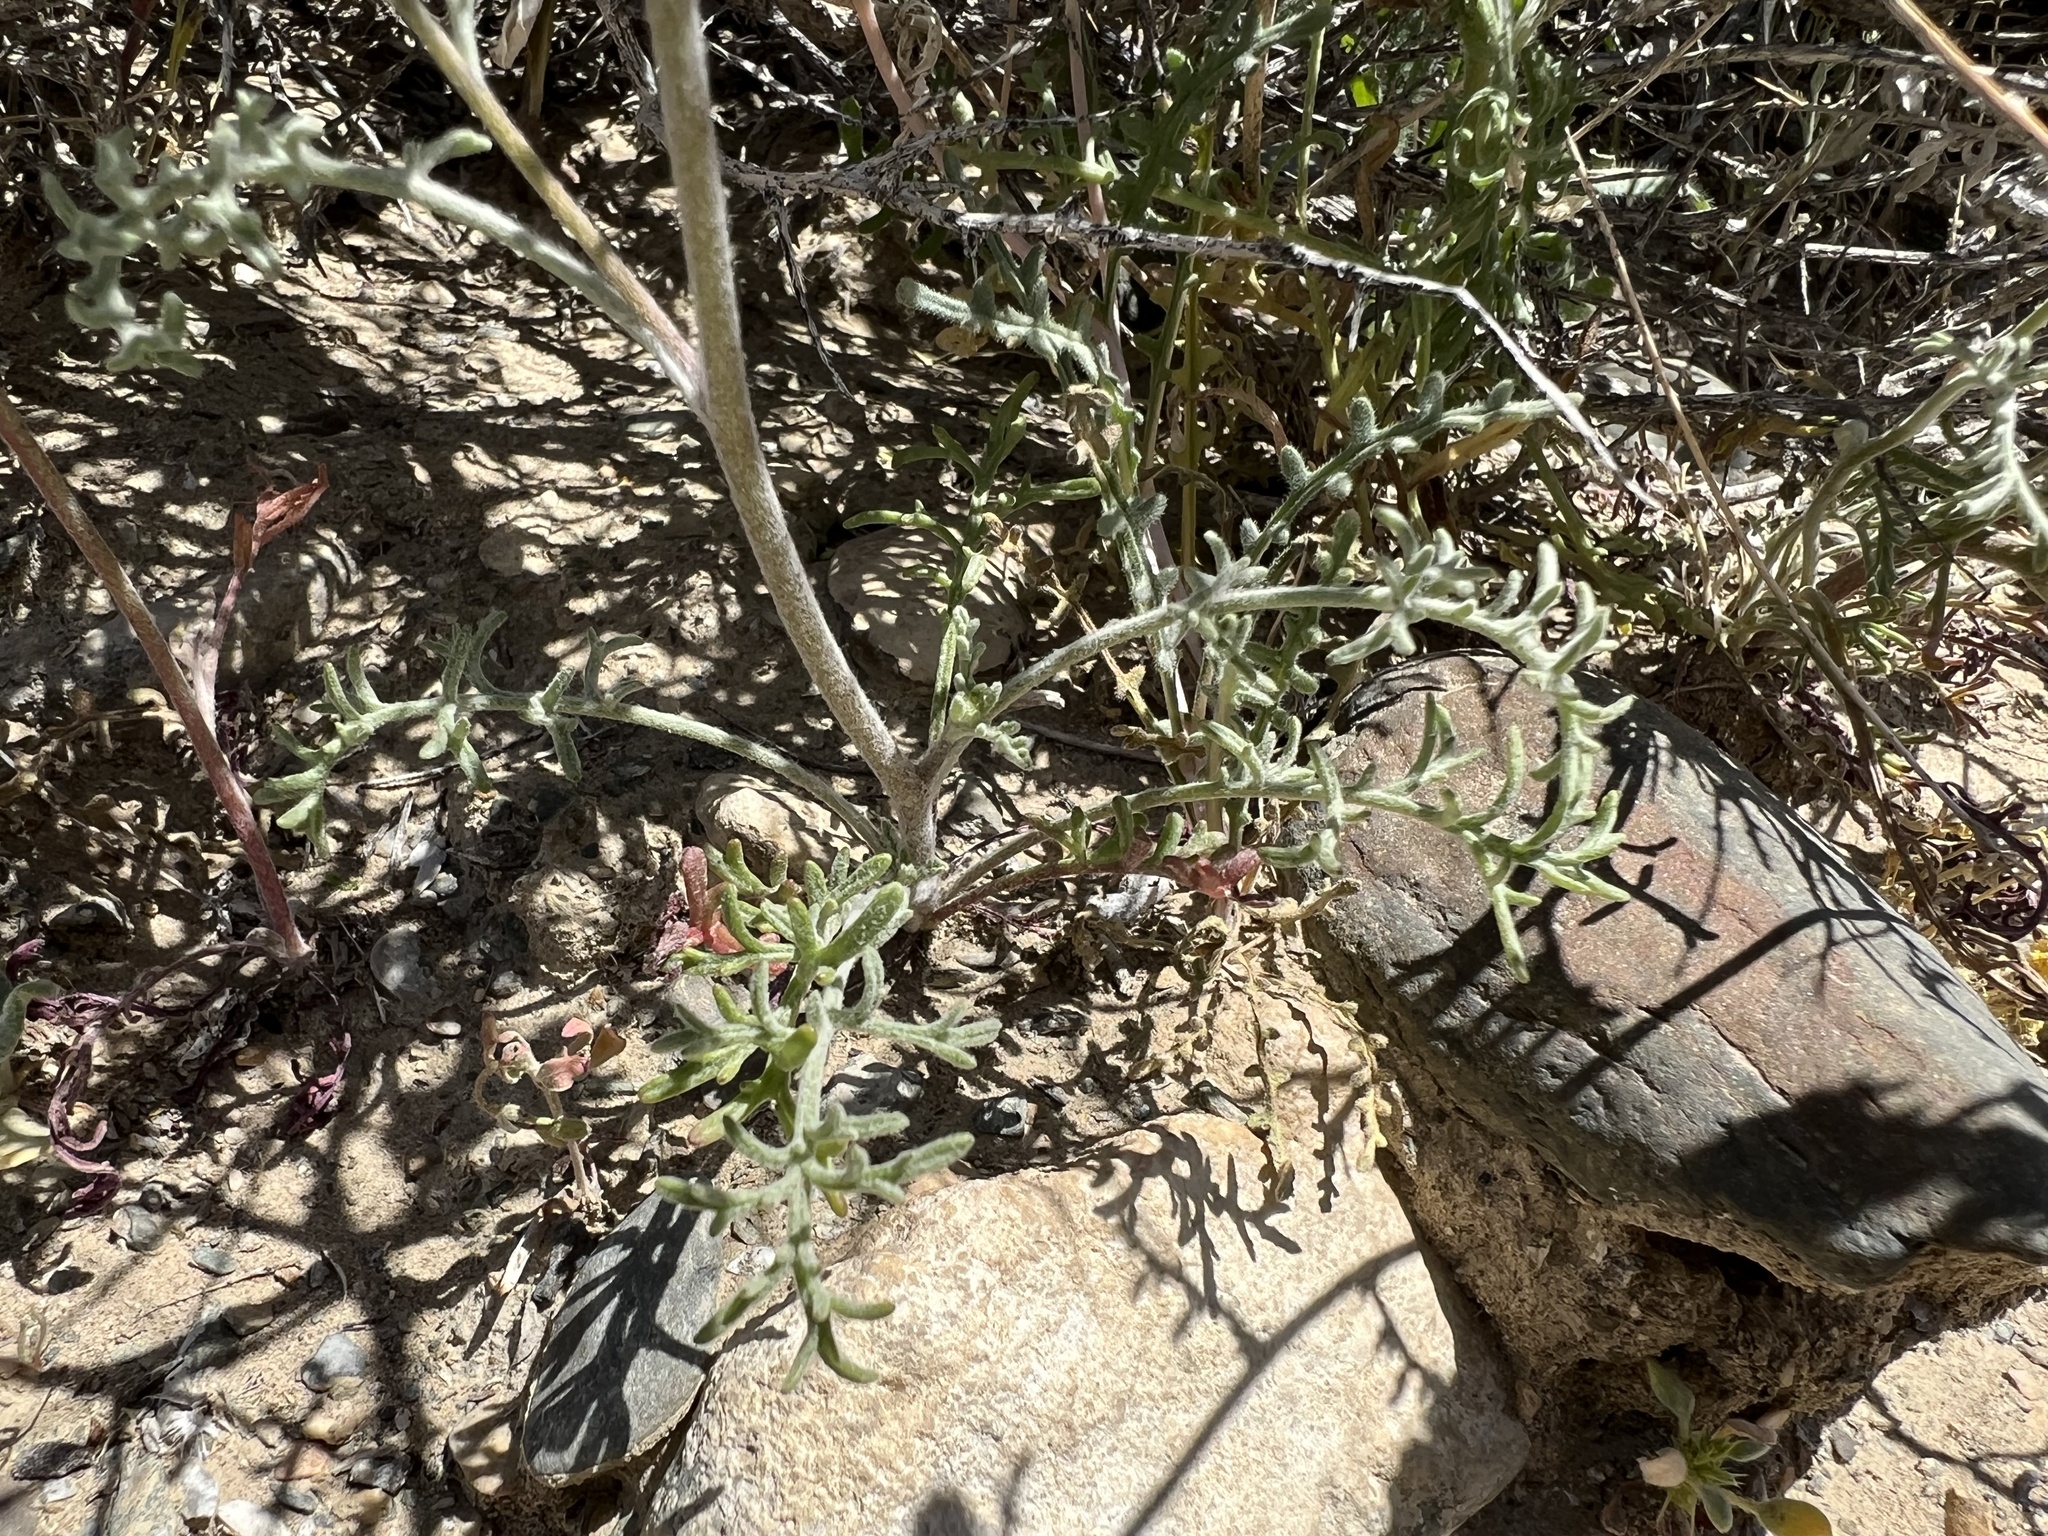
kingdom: Plantae
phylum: Tracheophyta
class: Magnoliopsida
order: Asterales
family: Asteraceae
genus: Ambrosia
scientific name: Ambrosia salsola
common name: Burrobrush
